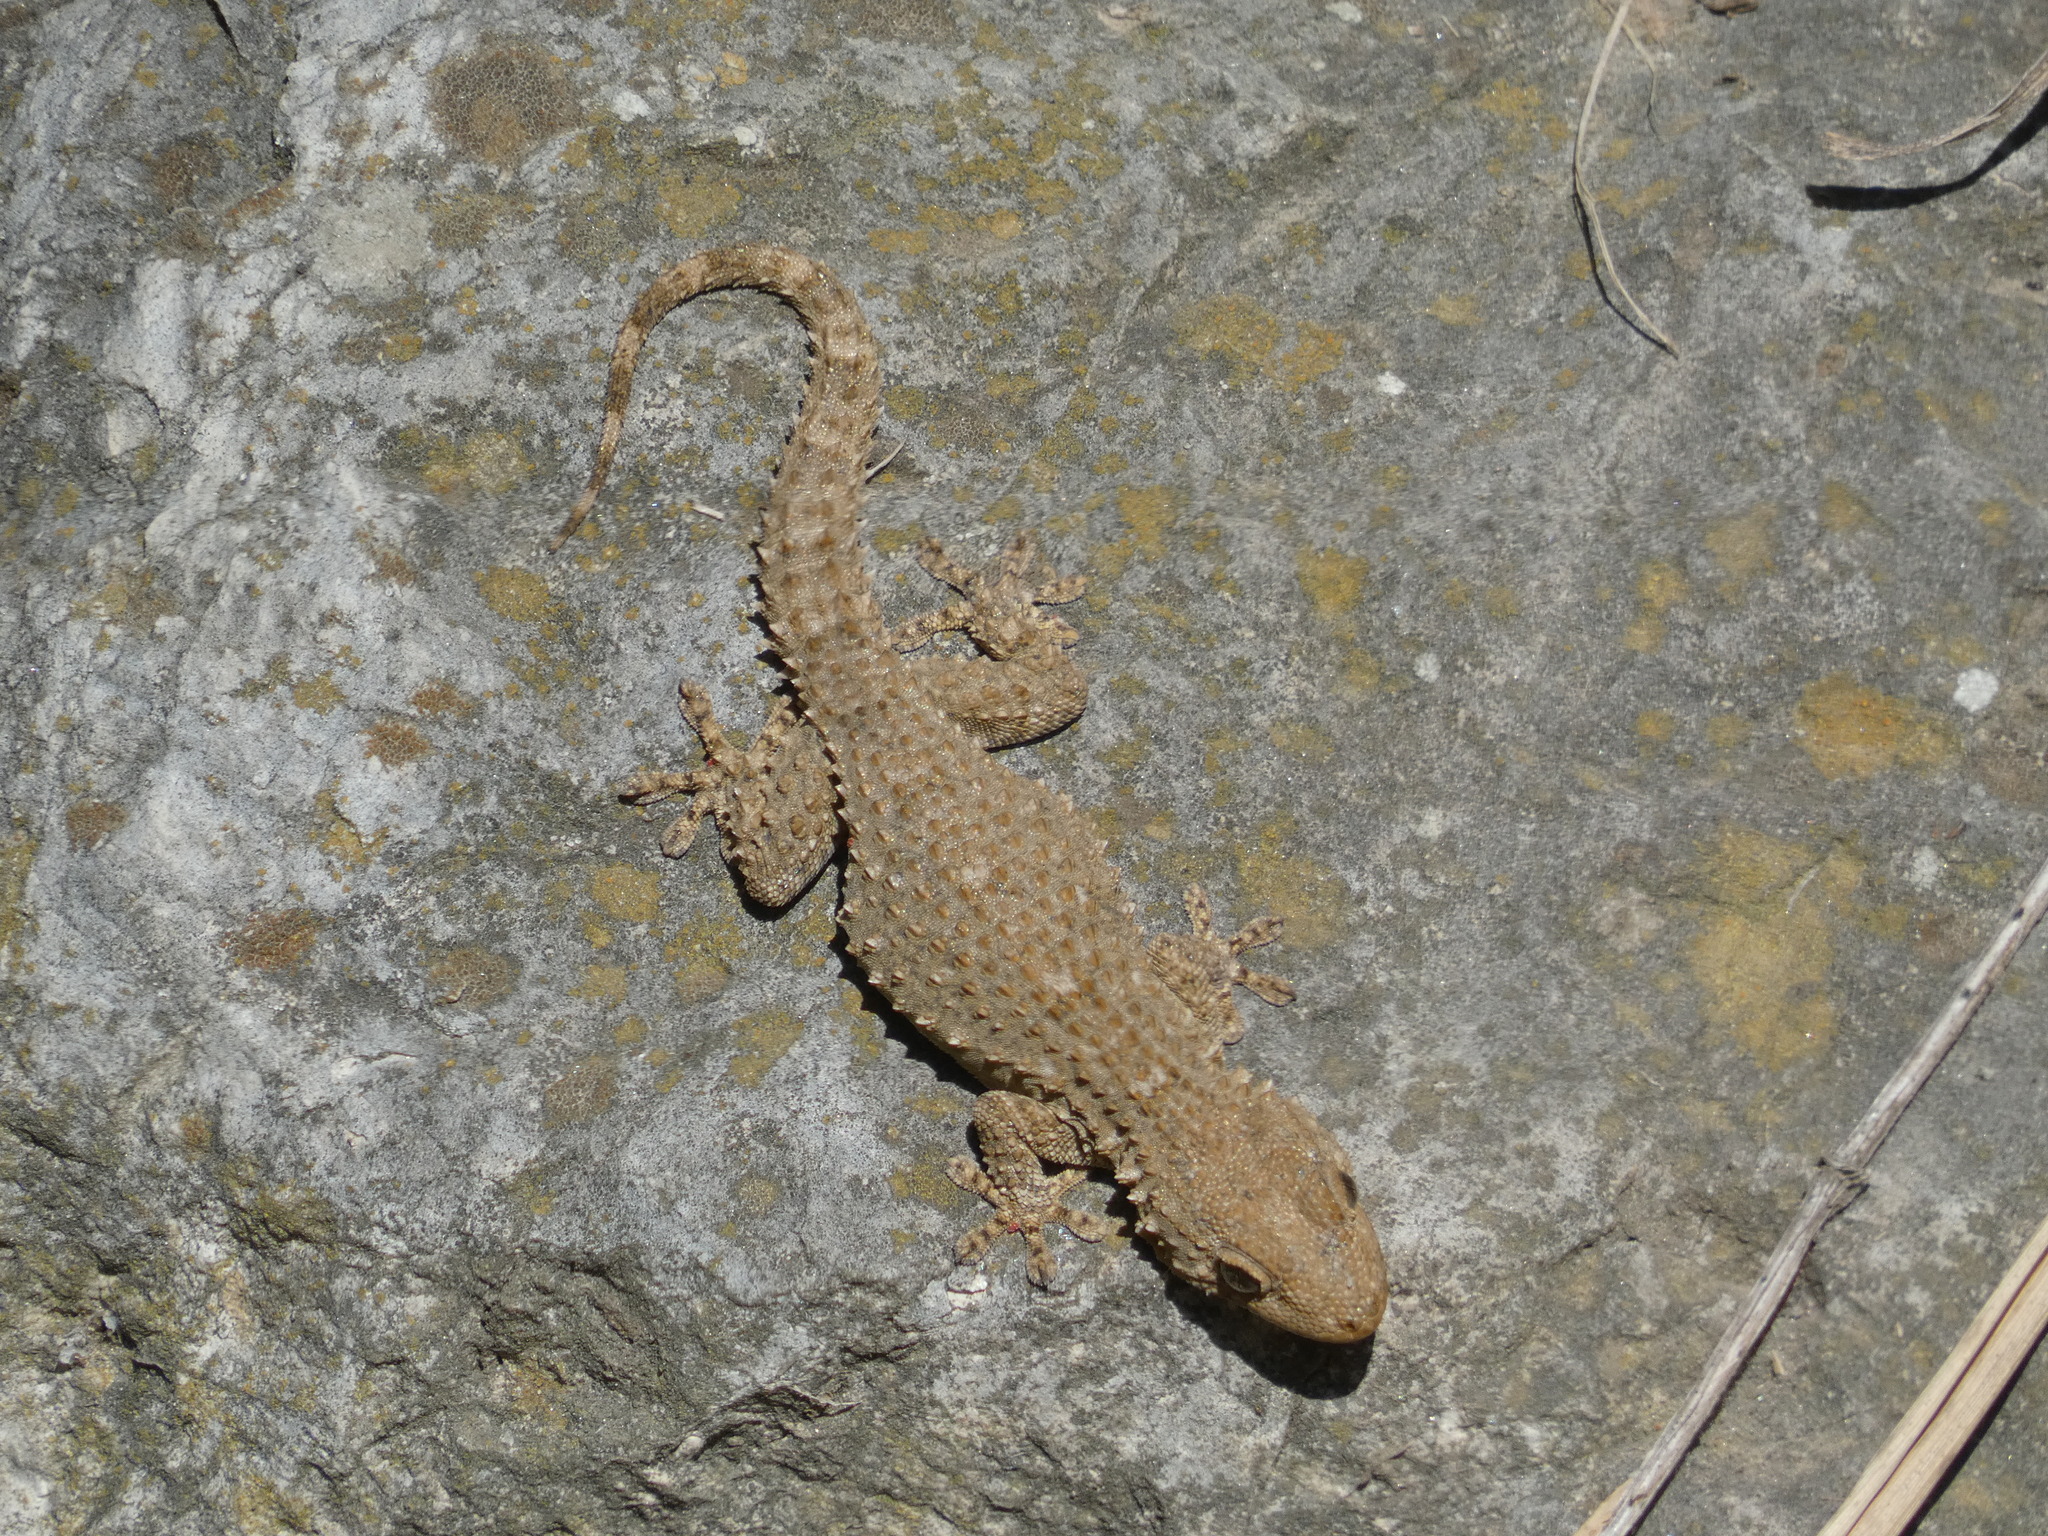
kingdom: Animalia
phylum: Chordata
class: Squamata
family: Phyllodactylidae
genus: Tarentola
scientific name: Tarentola mauritanica
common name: Moorish gecko
